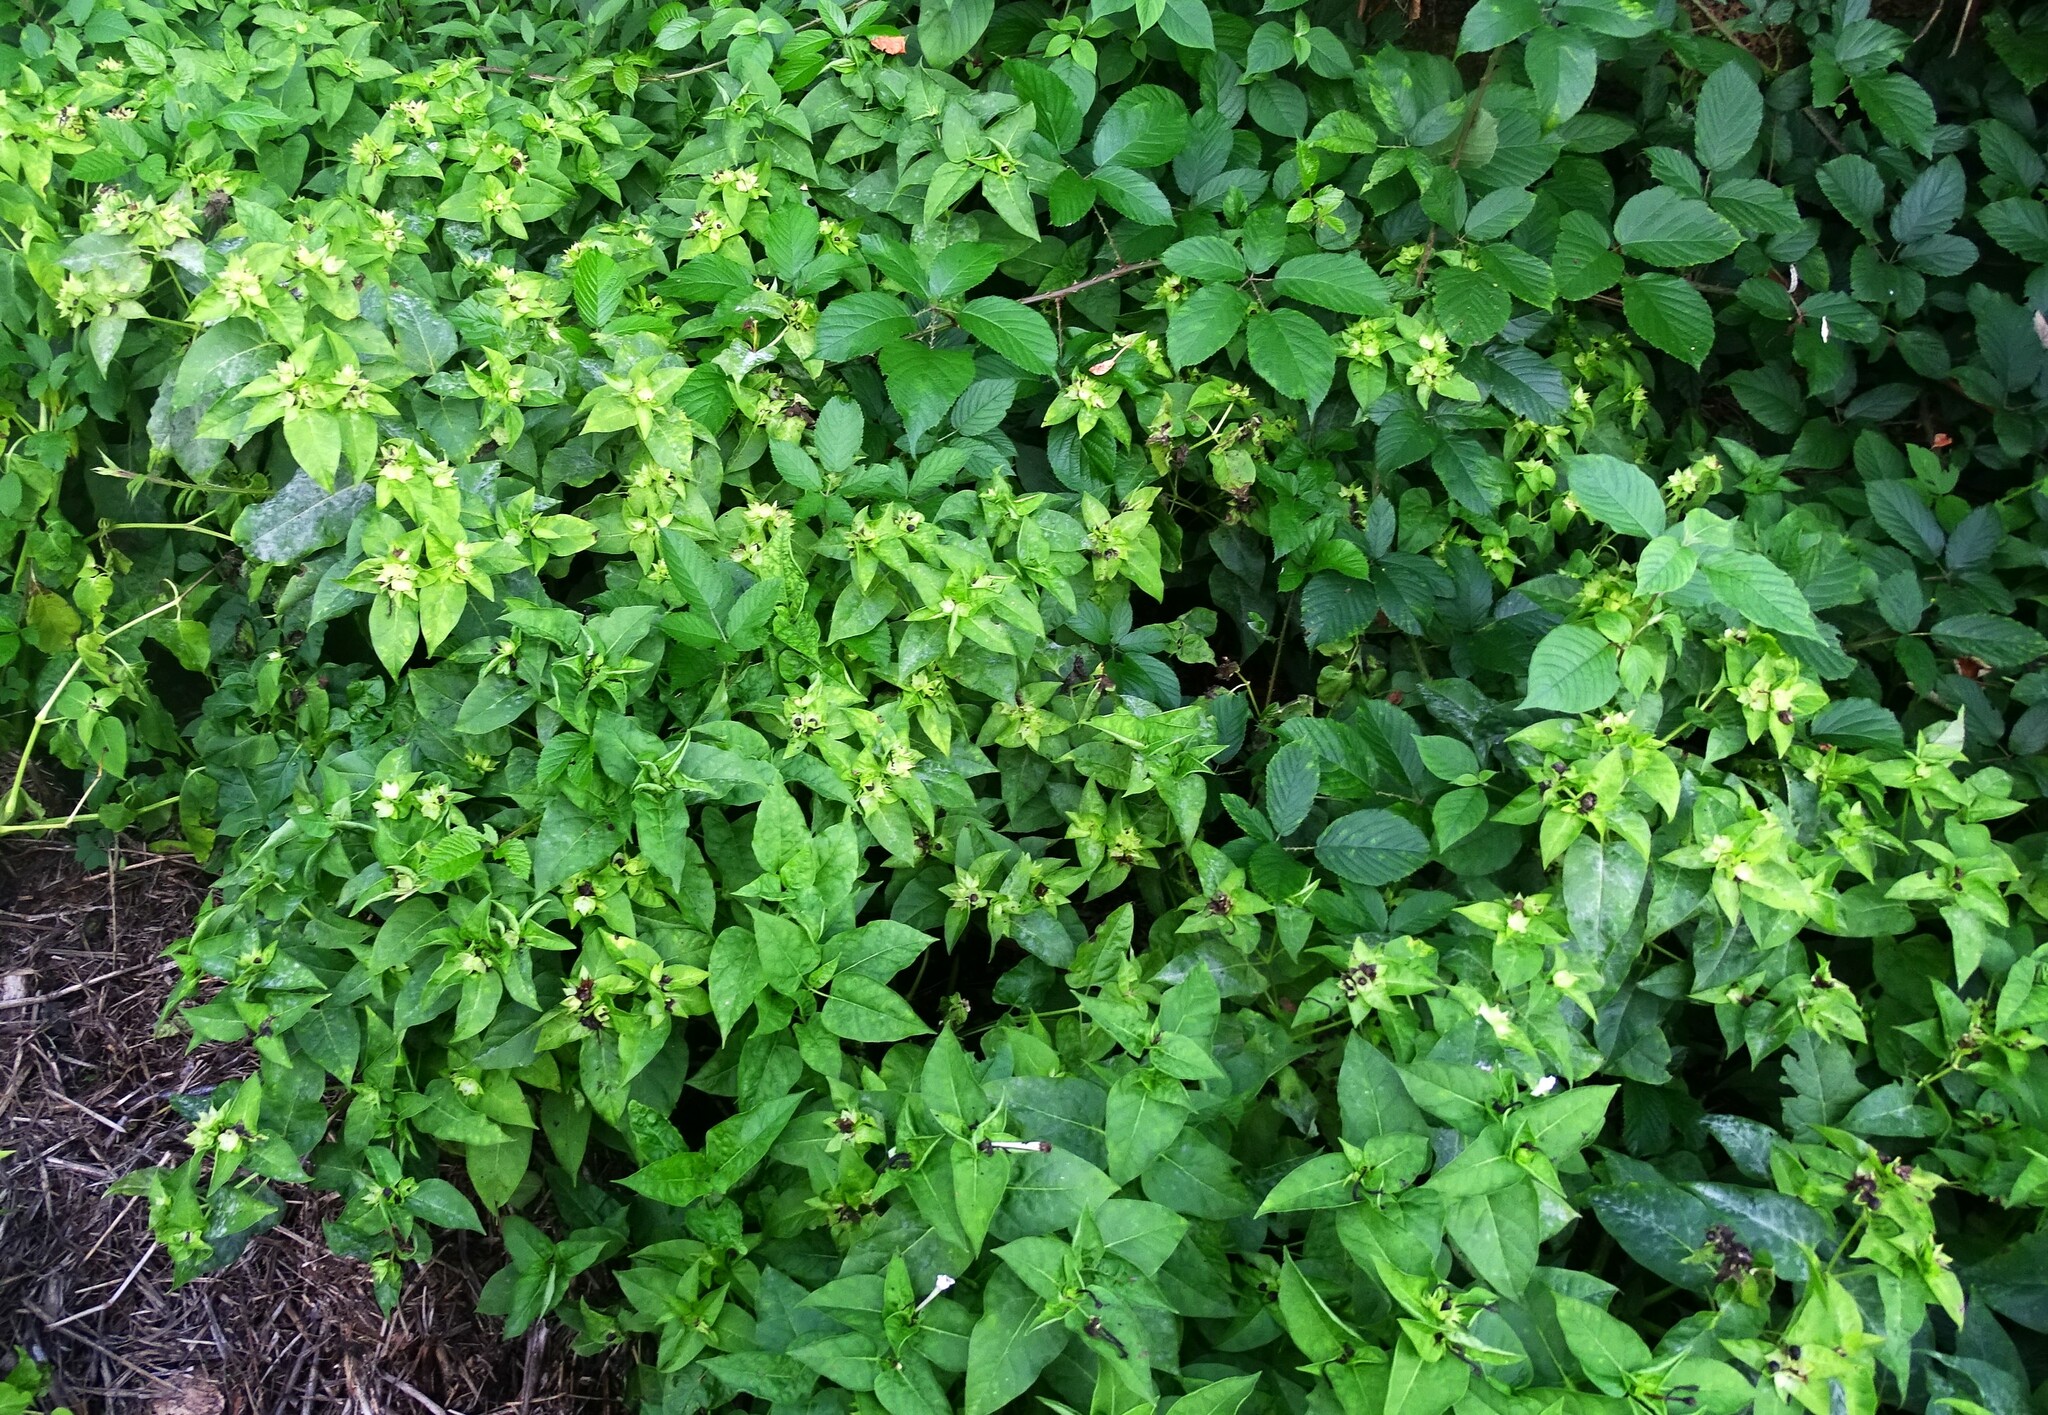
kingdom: Plantae
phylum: Tracheophyta
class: Magnoliopsida
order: Caryophyllales
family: Nyctaginaceae
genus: Mirabilis
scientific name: Mirabilis jalapa
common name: Marvel-of-peru
